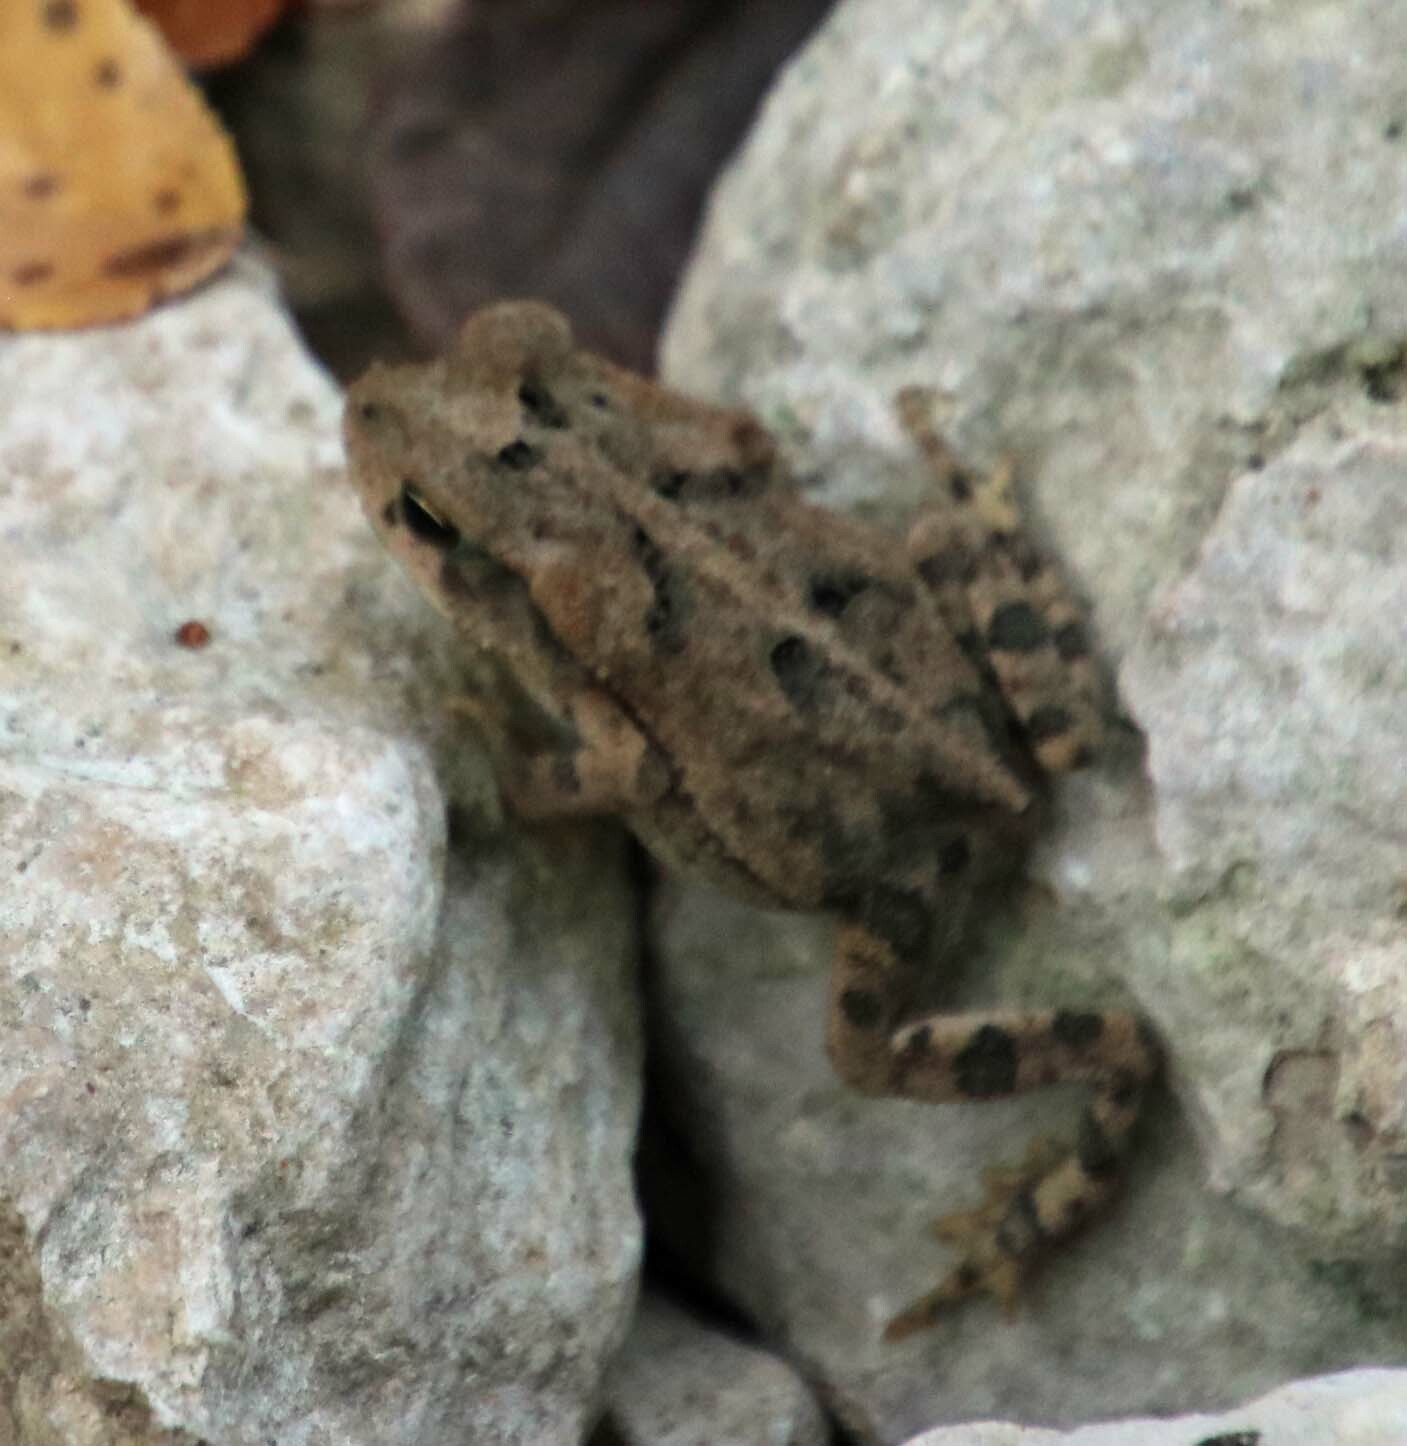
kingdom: Animalia
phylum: Chordata
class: Amphibia
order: Anura
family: Bufonidae
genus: Incilius
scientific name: Incilius nebulifer
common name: Gulf coast toad
